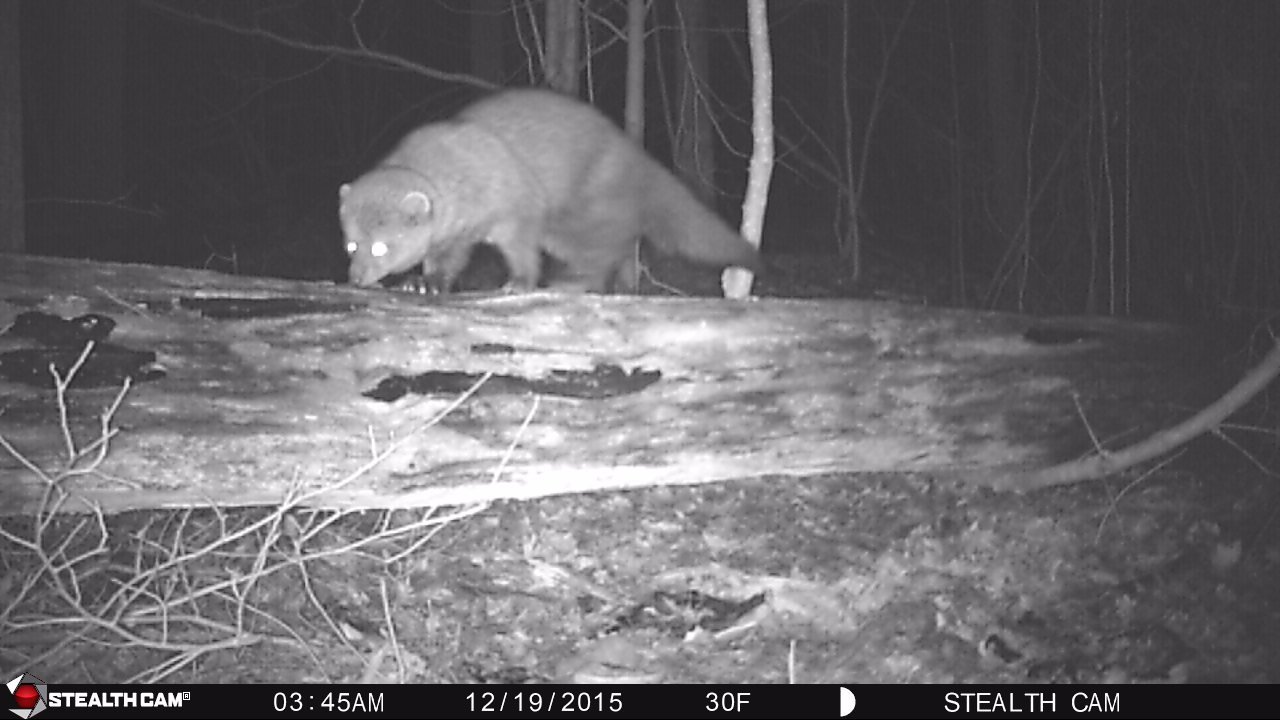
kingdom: Animalia
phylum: Chordata
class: Mammalia
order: Carnivora
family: Mustelidae
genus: Pekania
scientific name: Pekania pennanti
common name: Fisher
